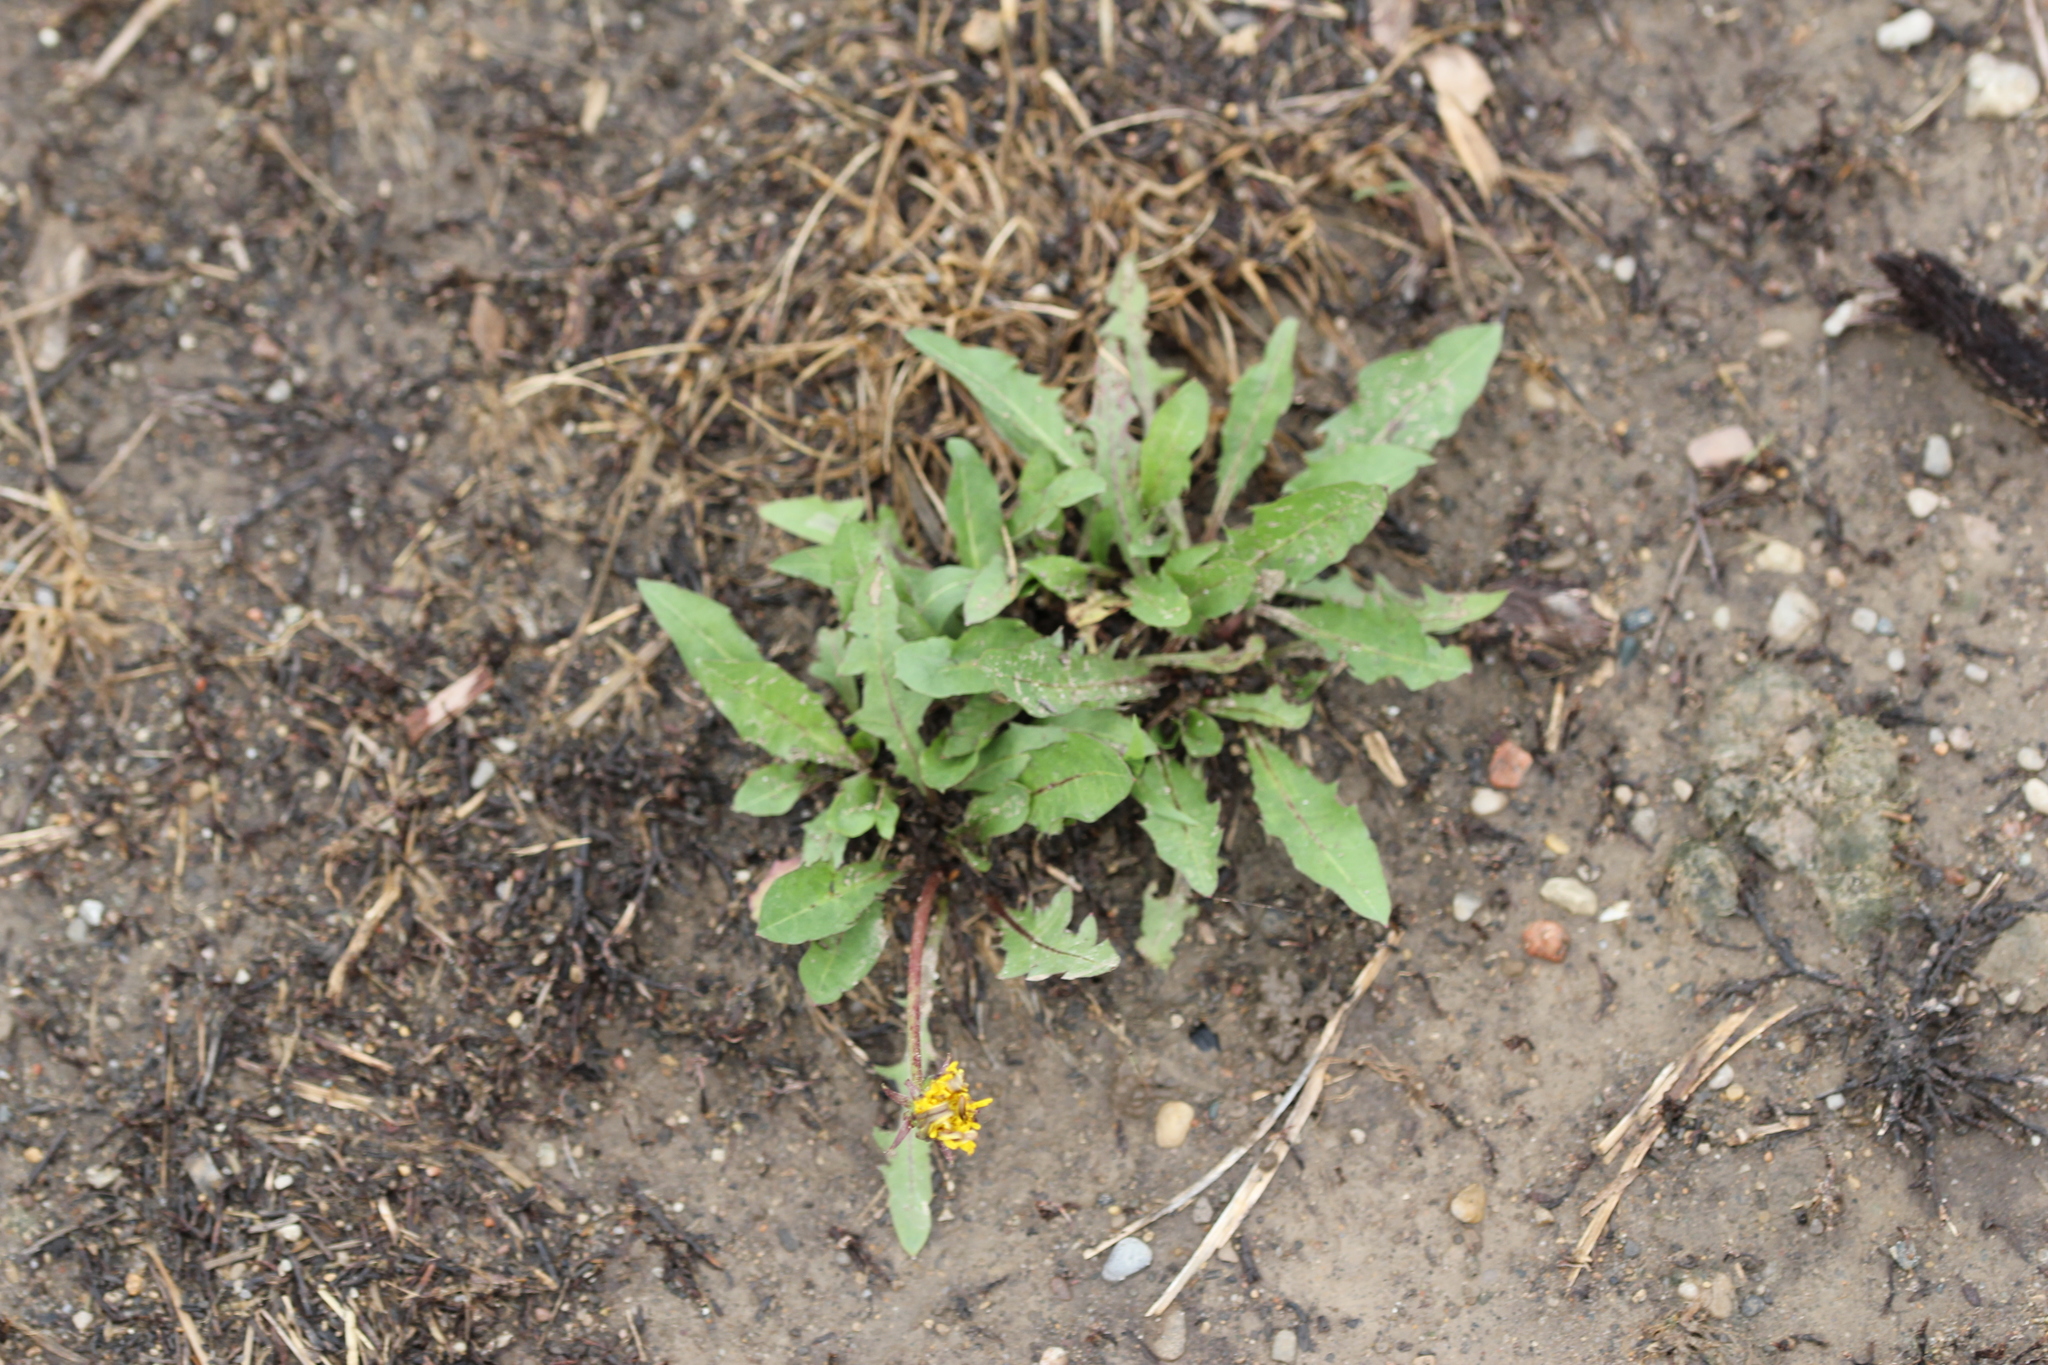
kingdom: Plantae
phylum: Tracheophyta
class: Magnoliopsida
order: Asterales
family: Asteraceae
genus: Taraxacum
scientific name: Taraxacum officinale
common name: Common dandelion
